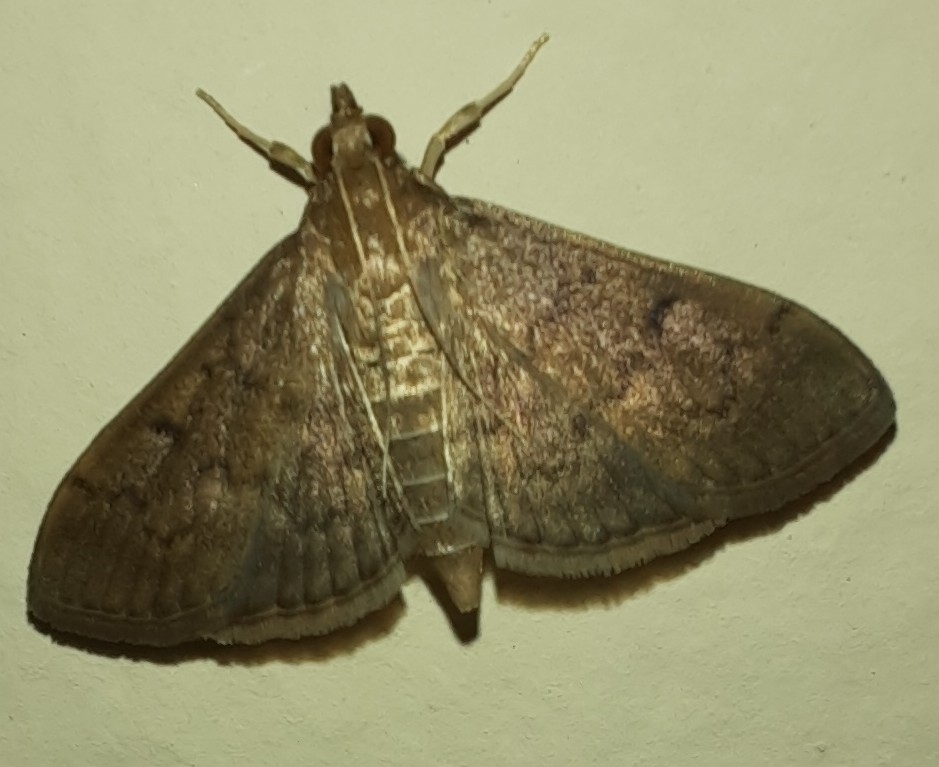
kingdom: Animalia
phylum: Arthropoda
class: Insecta
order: Lepidoptera
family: Crambidae
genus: Herpetogramma
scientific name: Herpetogramma phaeopteralis
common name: Dusky herpetogramma moth
